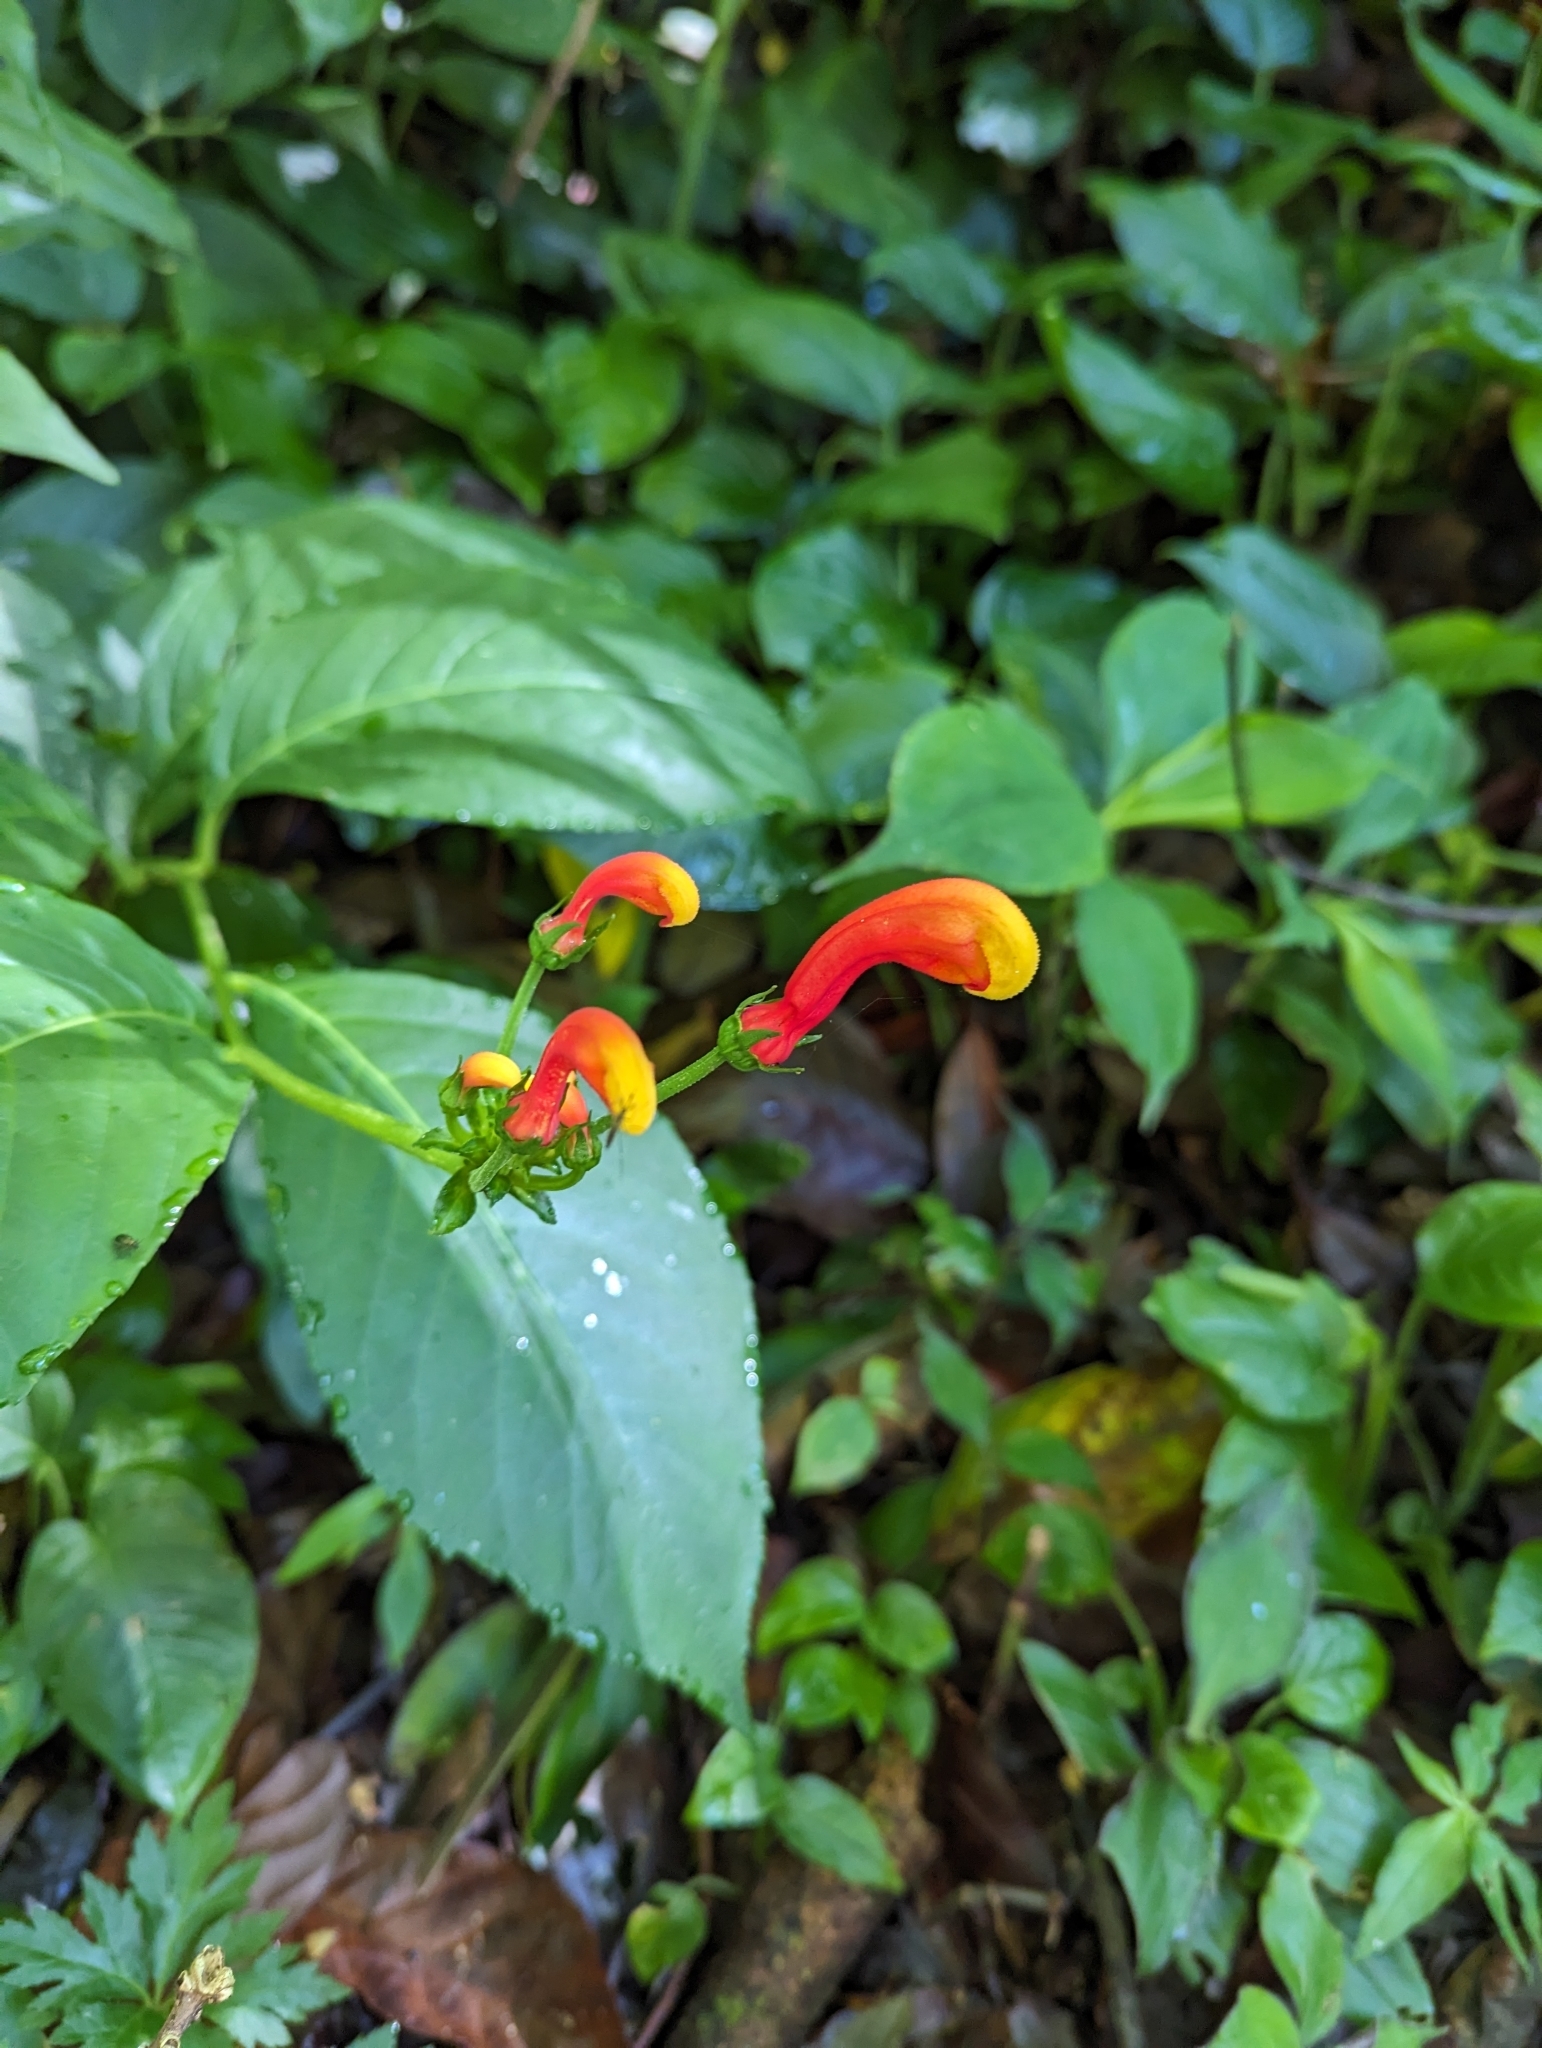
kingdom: Plantae
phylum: Tracheophyta
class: Magnoliopsida
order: Asterales
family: Campanulaceae
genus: Centropogon
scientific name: Centropogon granulosus
